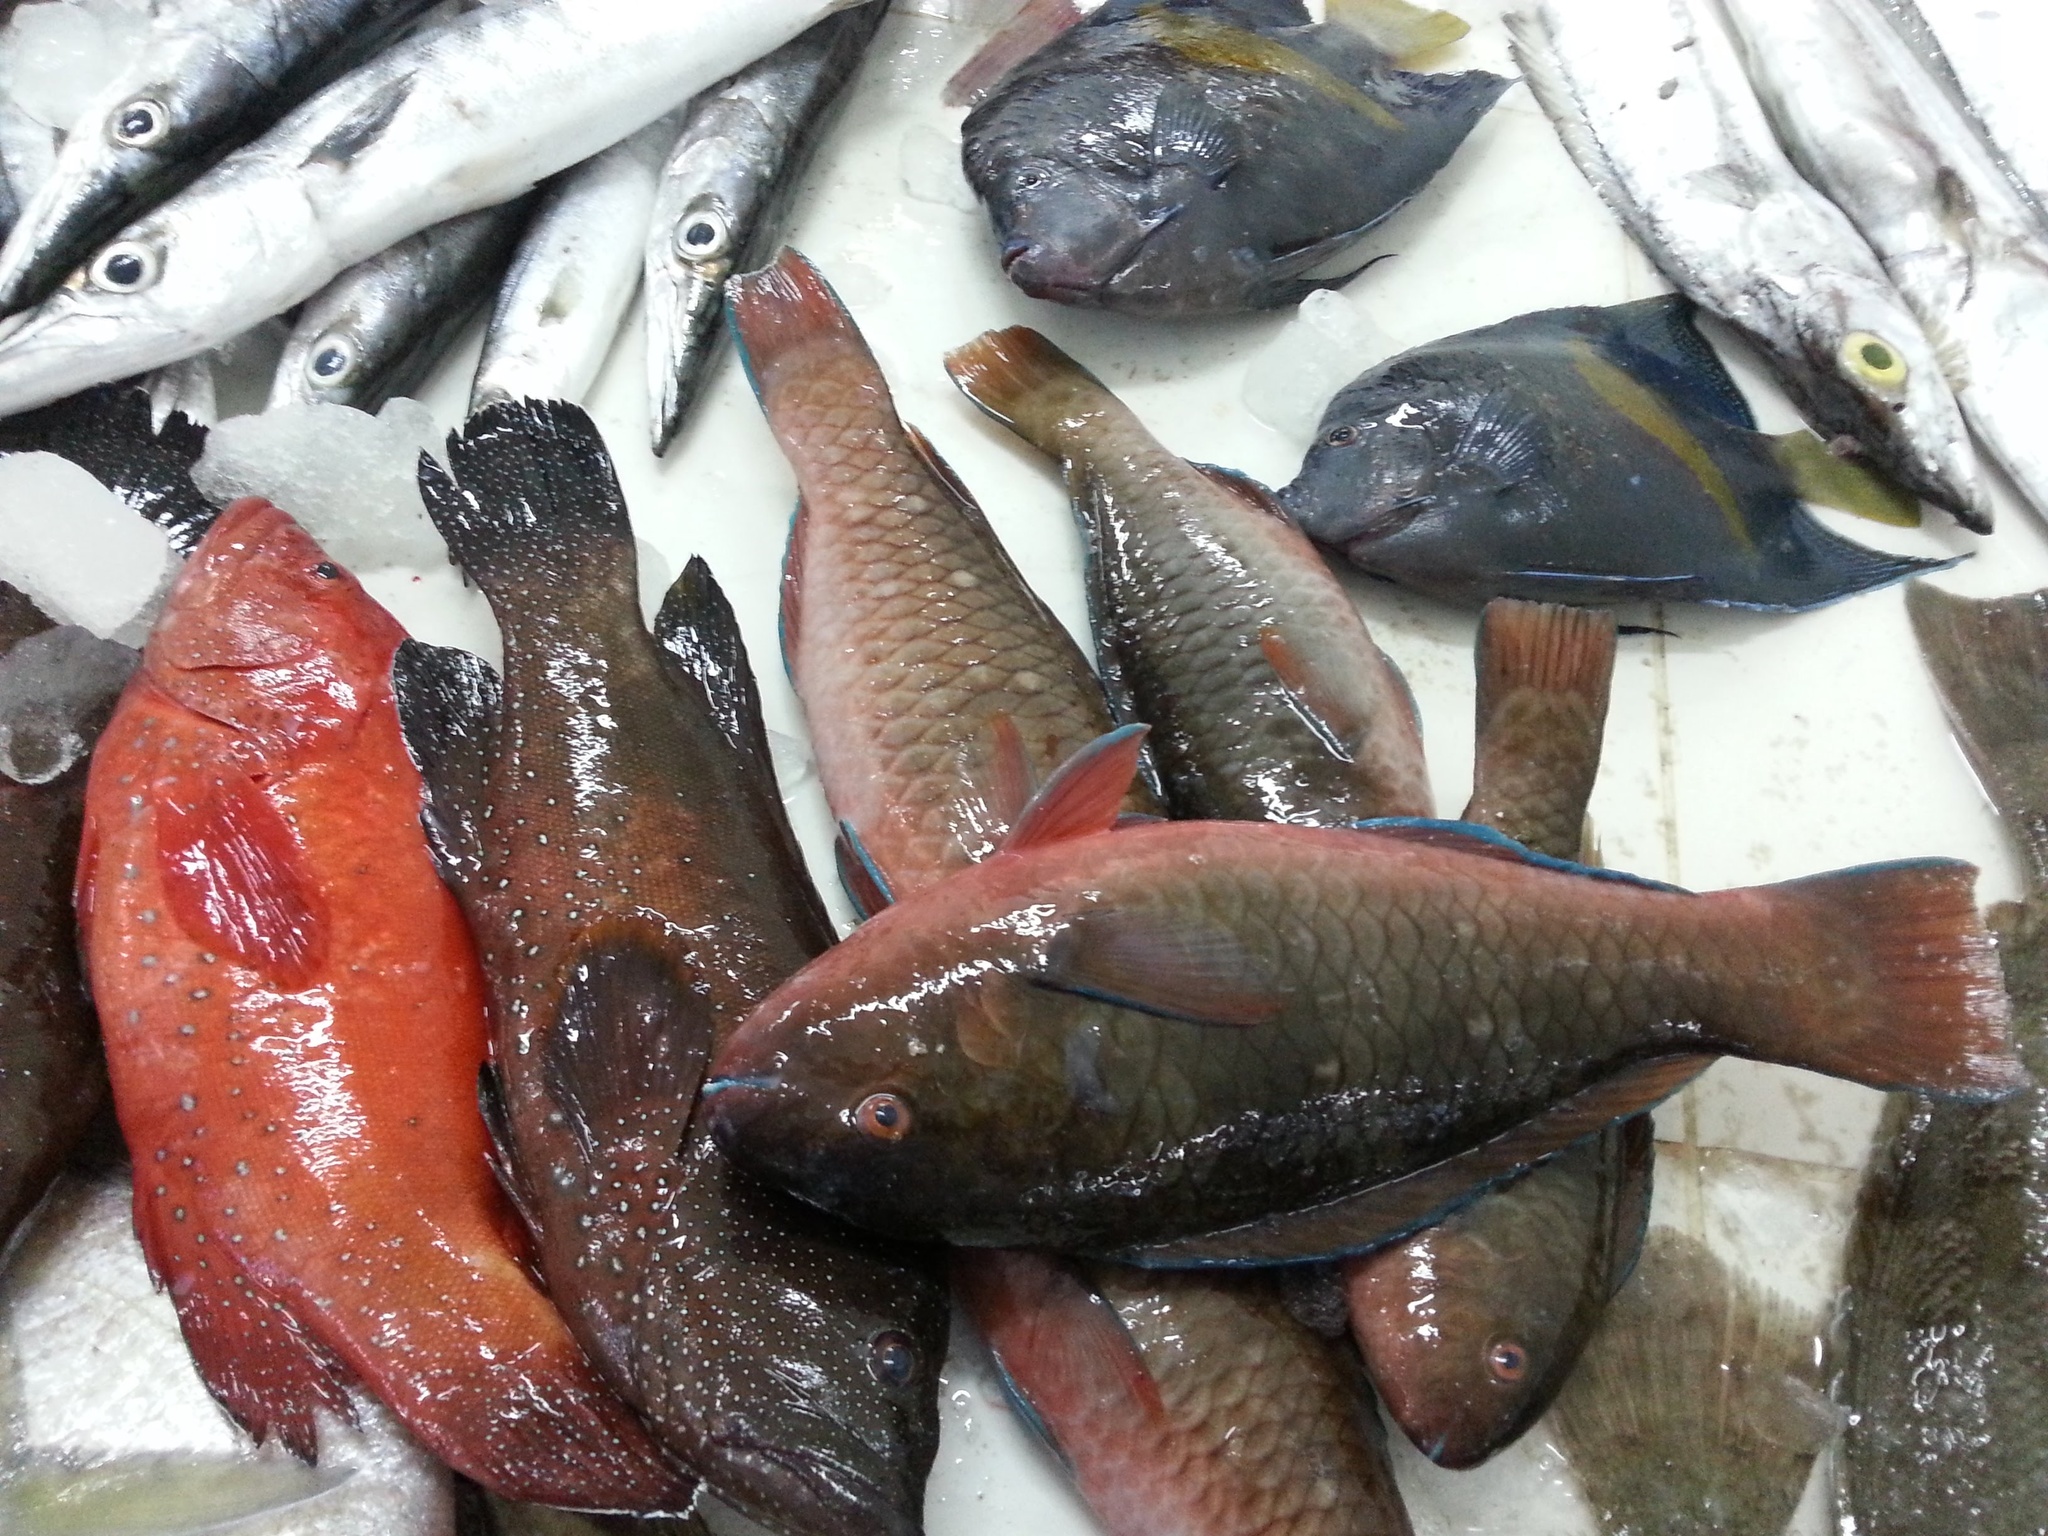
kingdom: Animalia
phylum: Chordata
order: Perciformes
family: Scaridae
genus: Scarus
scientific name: Scarus persicus
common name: Gulf parrotfish
